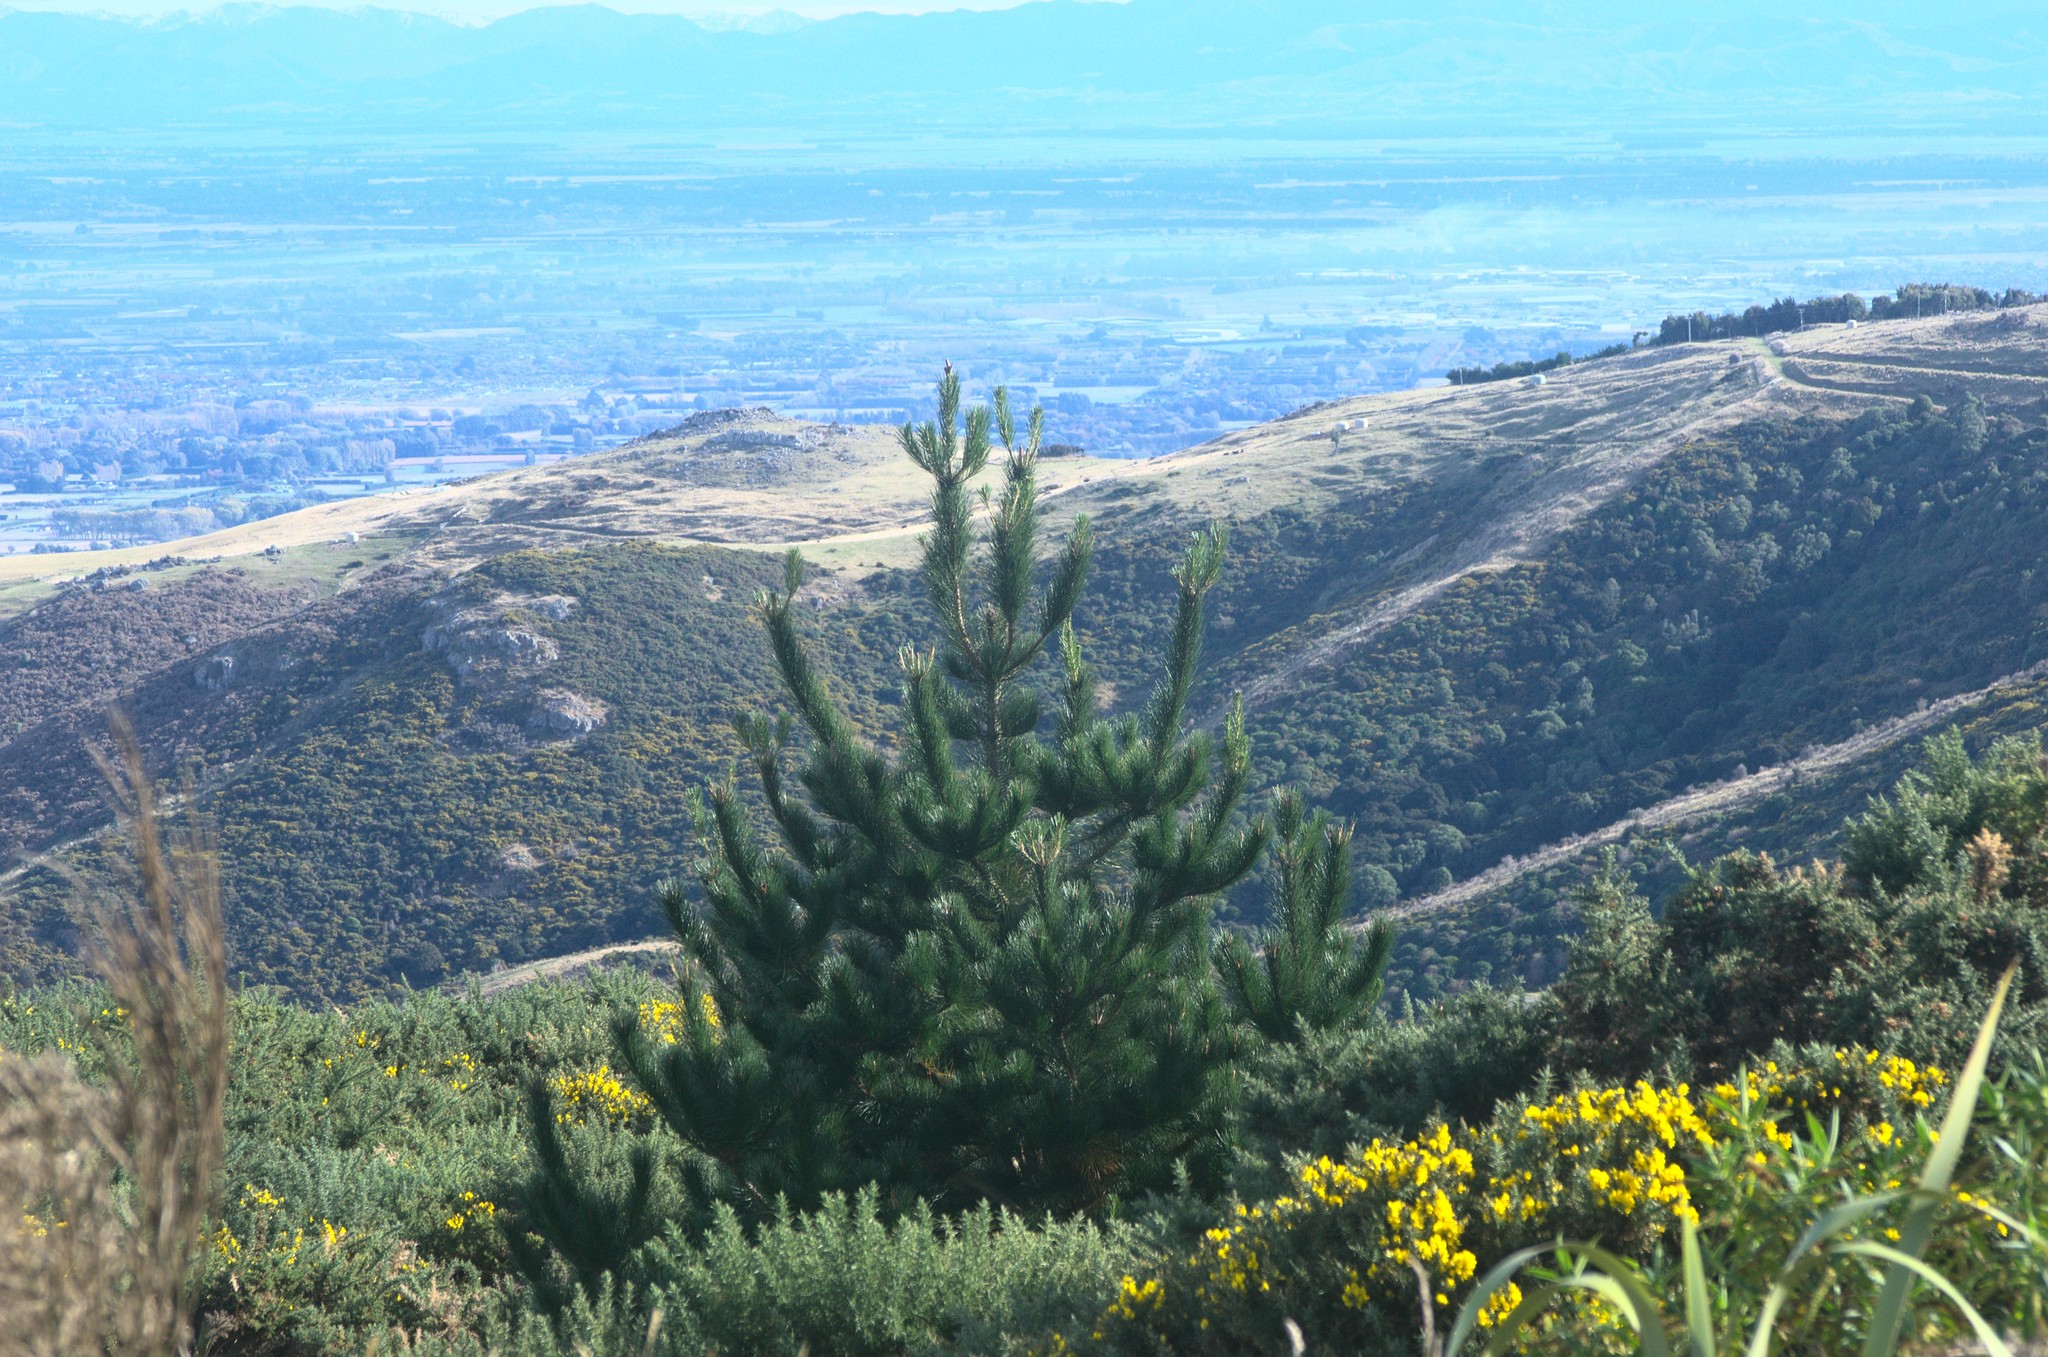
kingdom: Plantae
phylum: Tracheophyta
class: Pinopsida
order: Pinales
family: Pinaceae
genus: Pinus
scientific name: Pinus radiata
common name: Monterey pine
